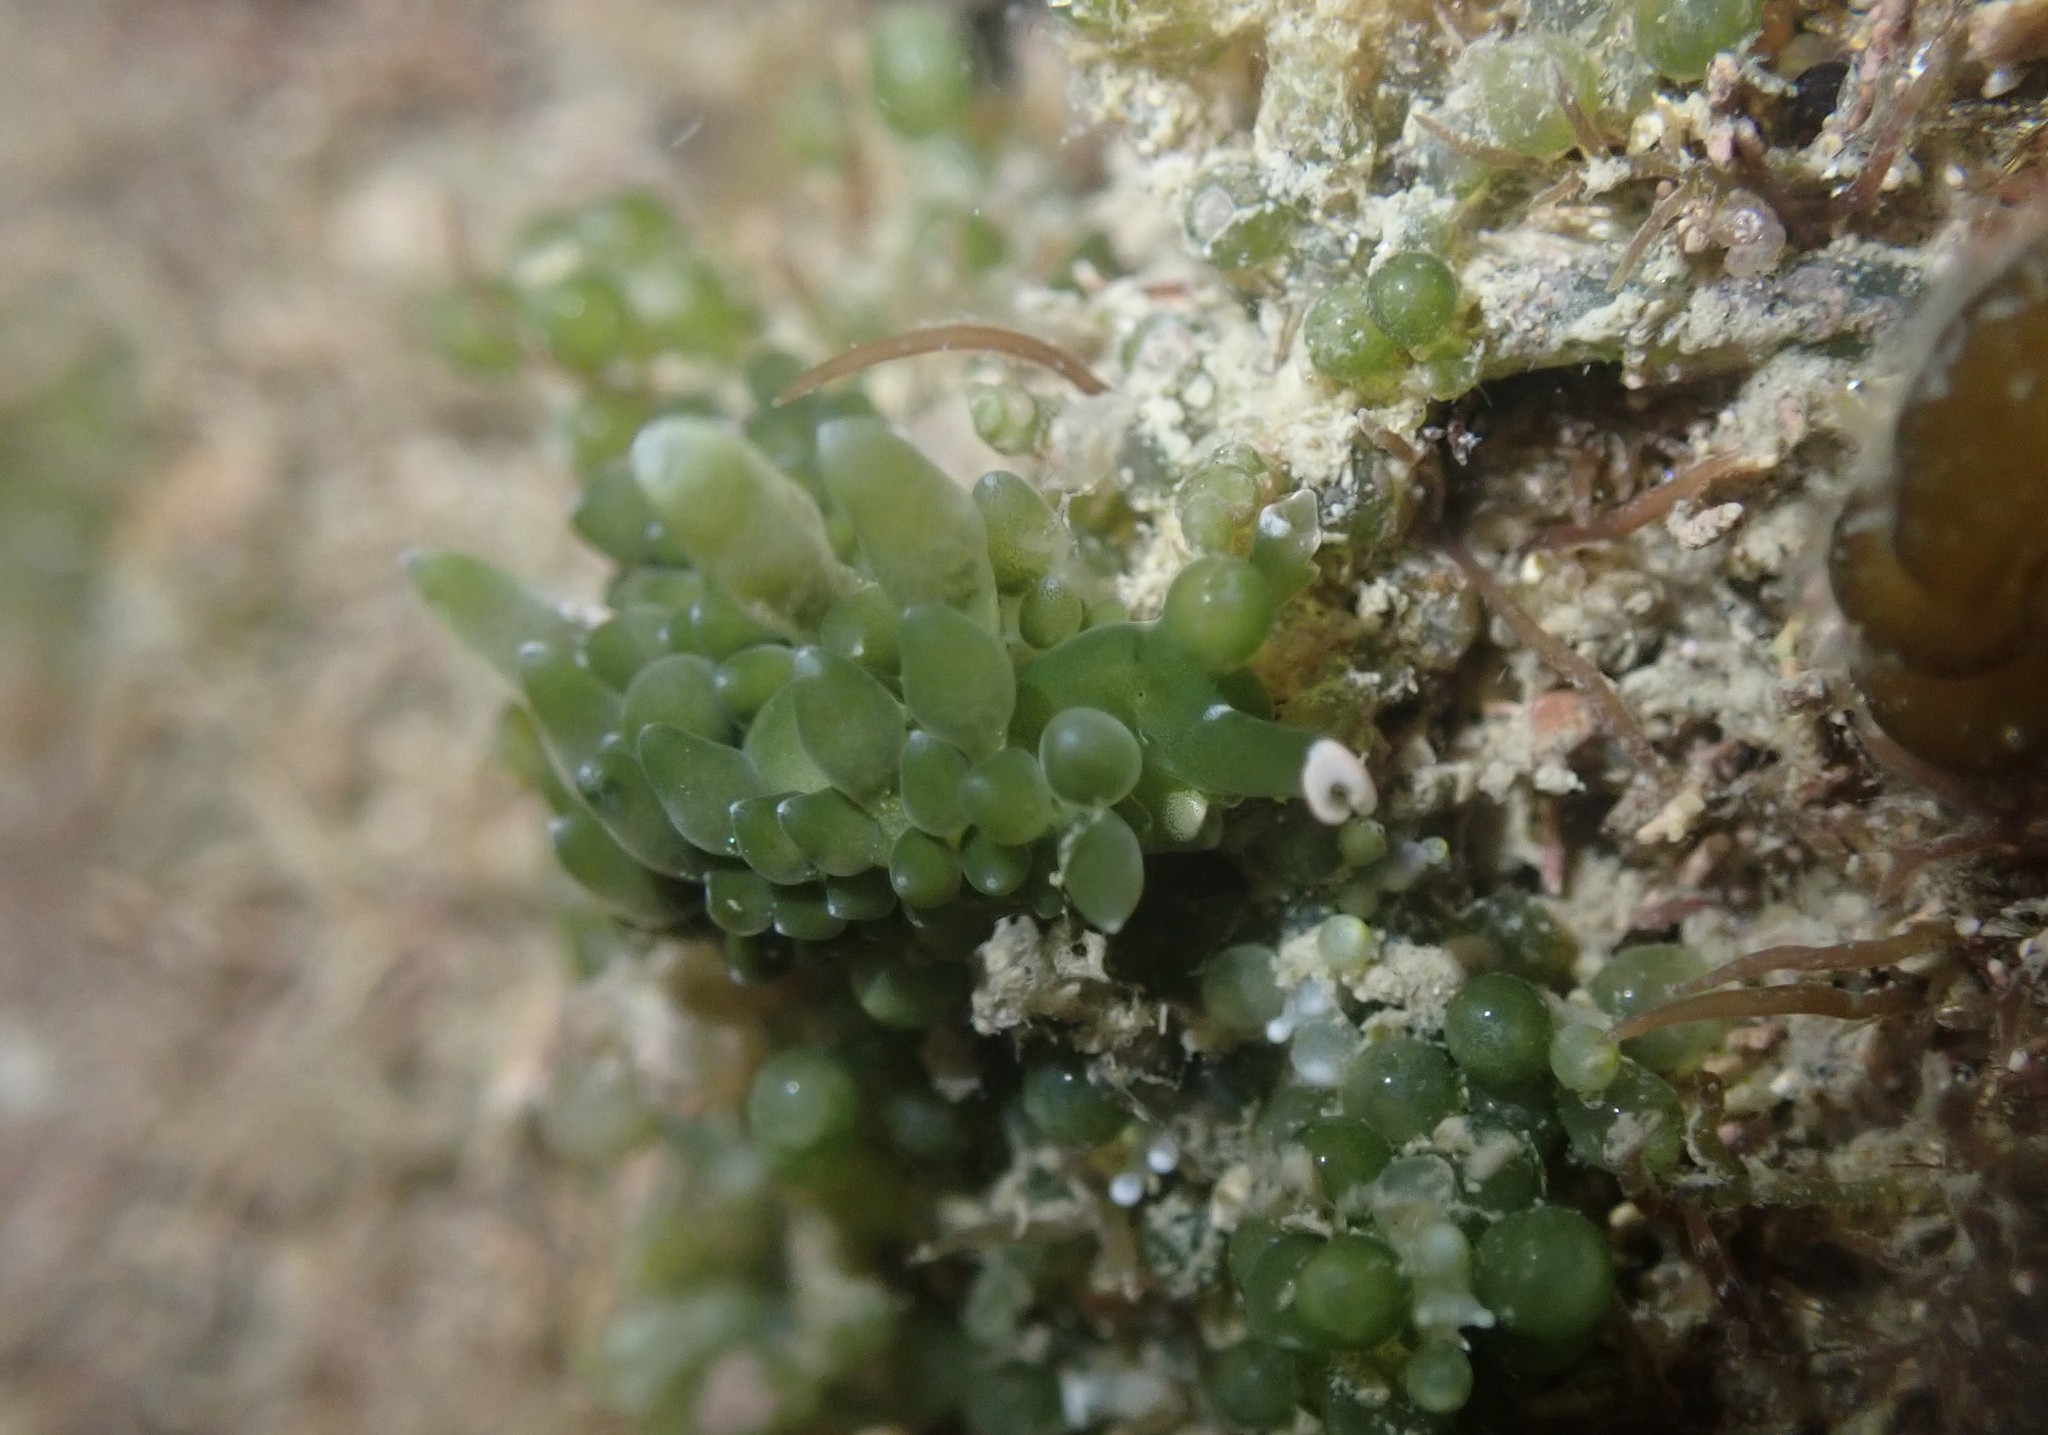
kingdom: Animalia
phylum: Mollusca
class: Gastropoda
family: Limapontiidae
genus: Sacoproteus
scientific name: Sacoproteus smaragdinus
